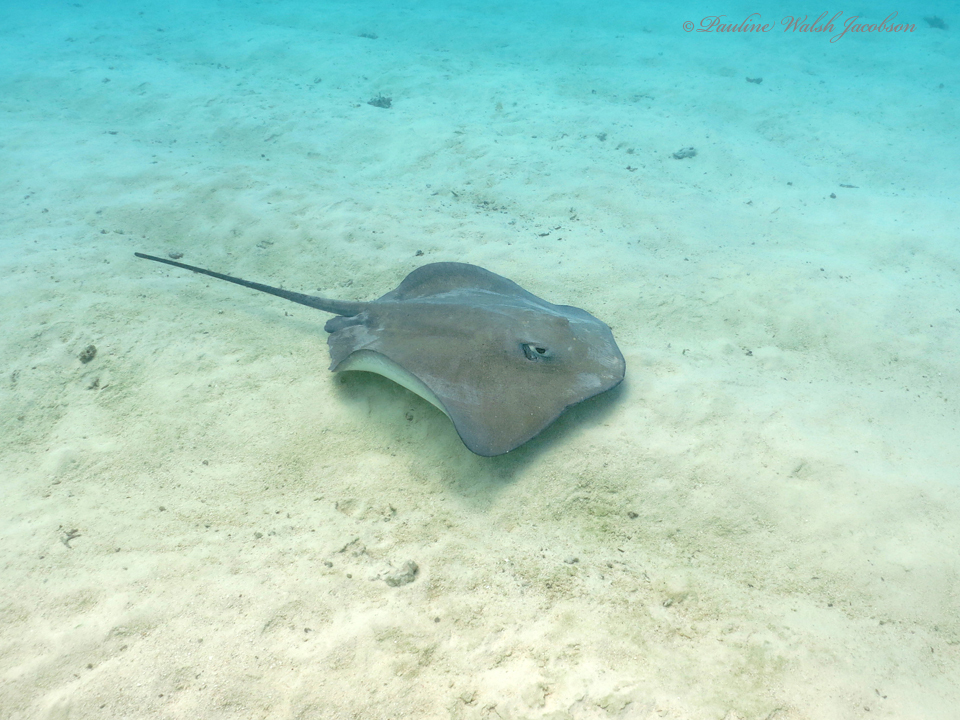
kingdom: Animalia
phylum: Chordata
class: Elasmobranchii
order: Myliobatiformes
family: Dasyatidae
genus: Pateobatis
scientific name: Pateobatis fai
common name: Pink whipray
